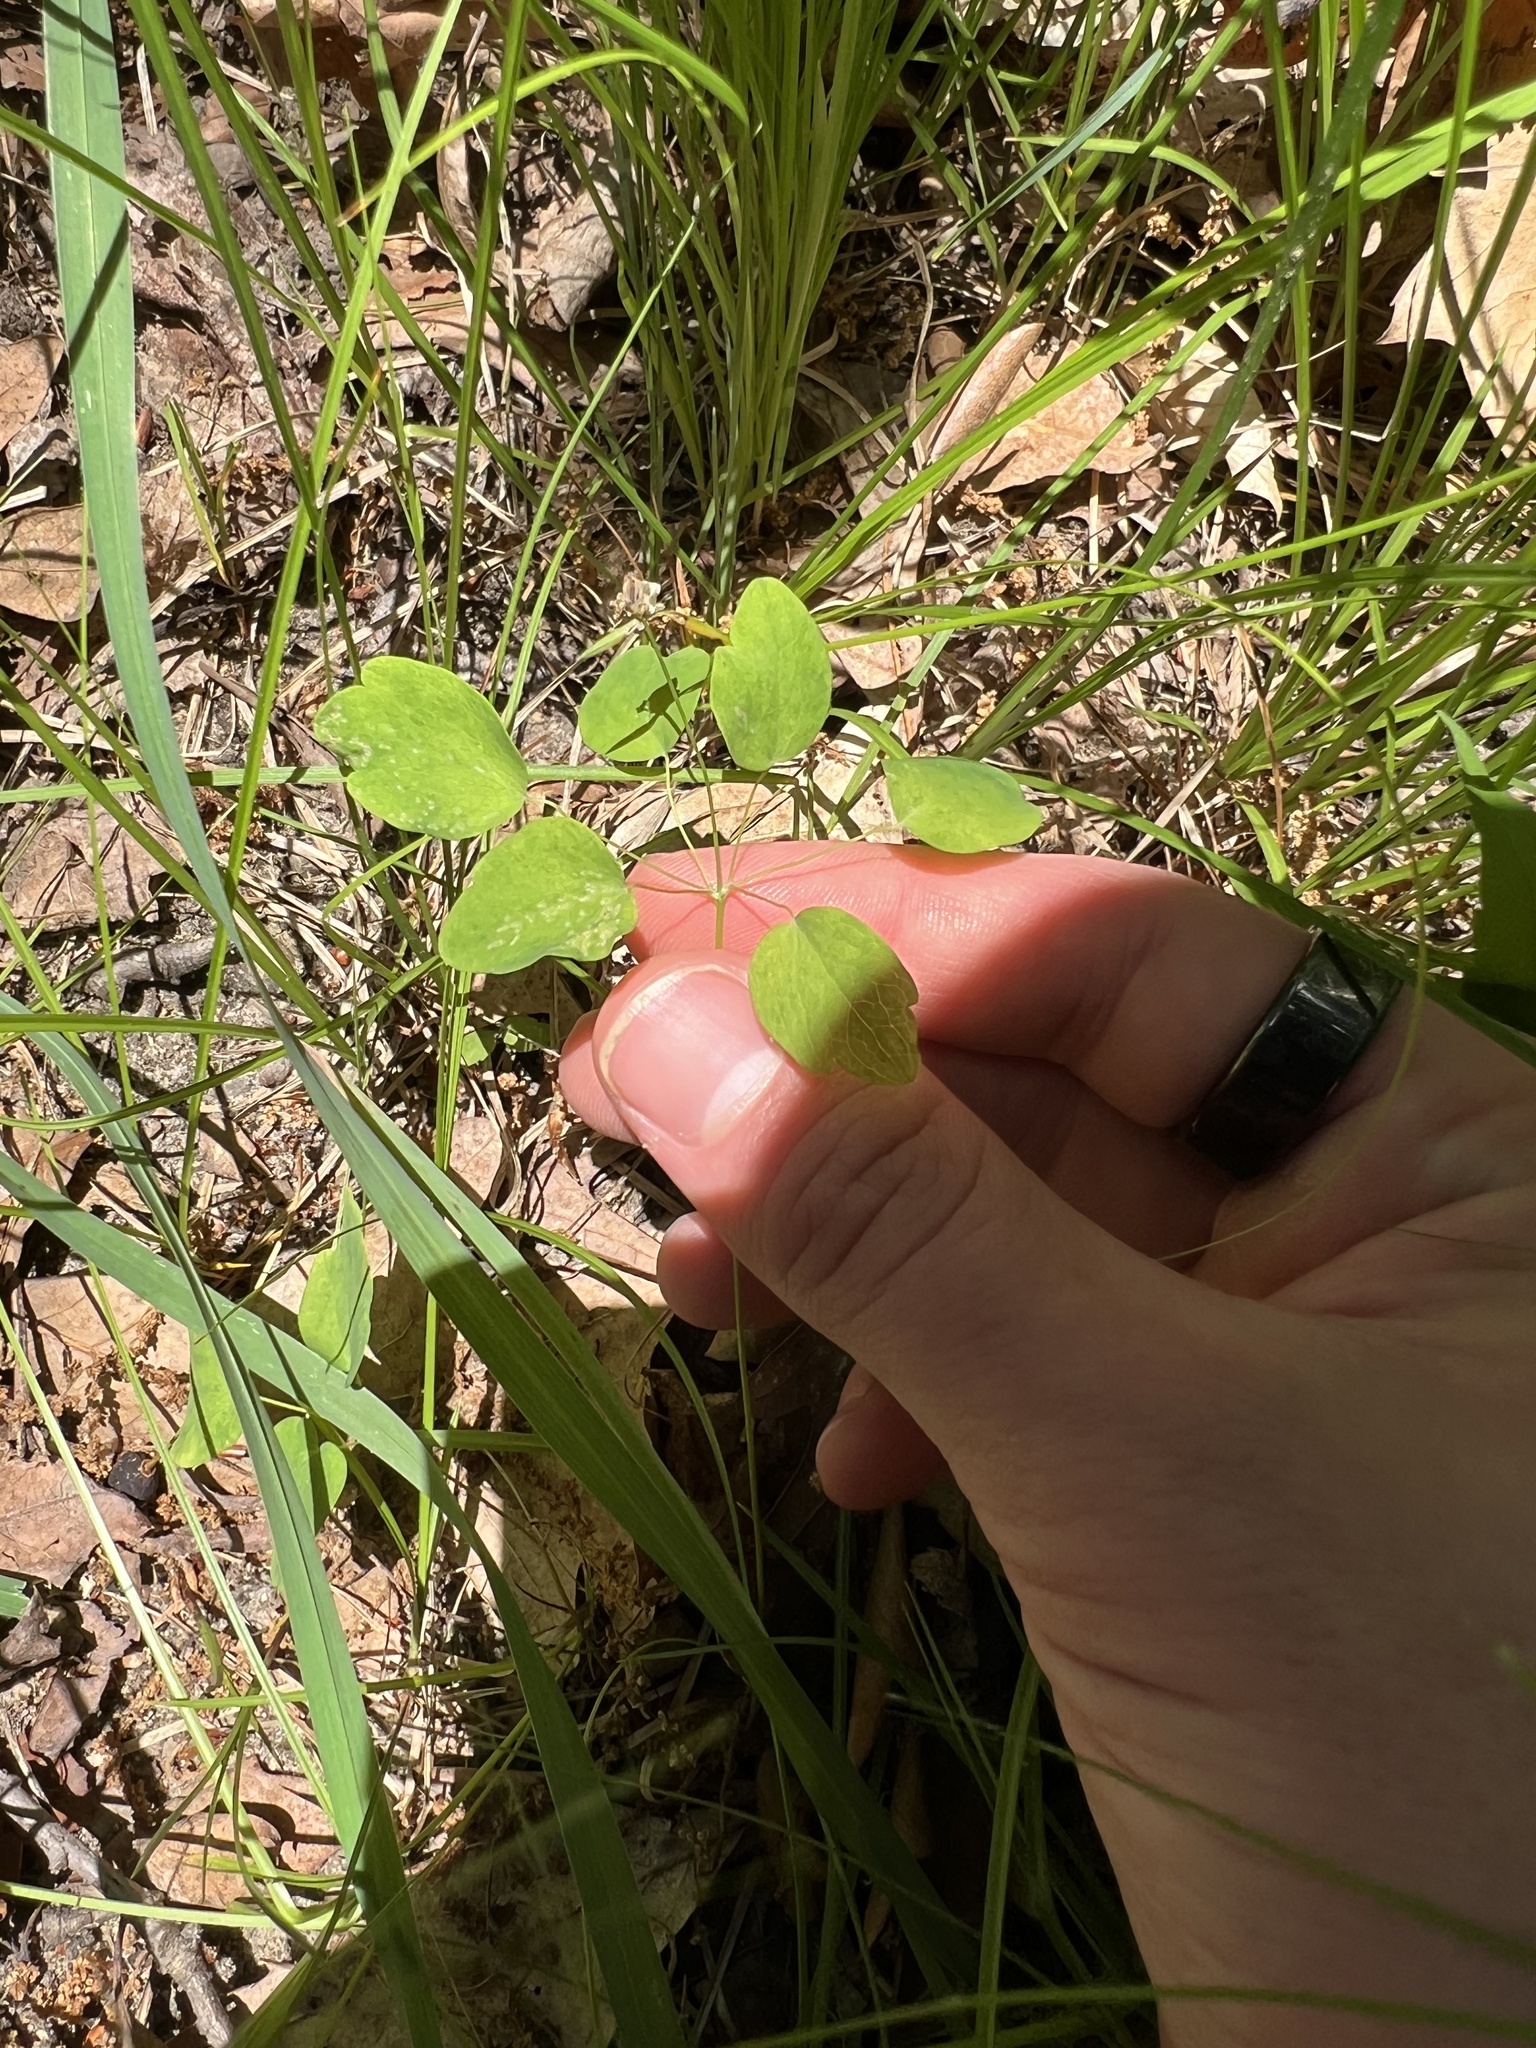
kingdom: Plantae
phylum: Tracheophyta
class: Magnoliopsida
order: Ranunculales
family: Ranunculaceae
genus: Thalictrum
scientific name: Thalictrum thalictroides
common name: Rue-anemone
